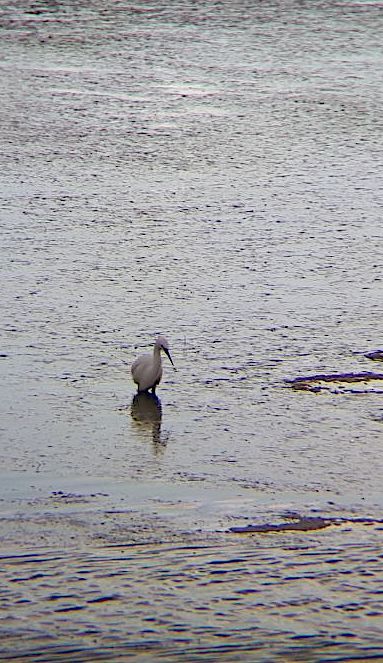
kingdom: Animalia
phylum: Chordata
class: Aves
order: Pelecaniformes
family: Ardeidae
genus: Egretta
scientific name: Egretta garzetta
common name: Little egret
